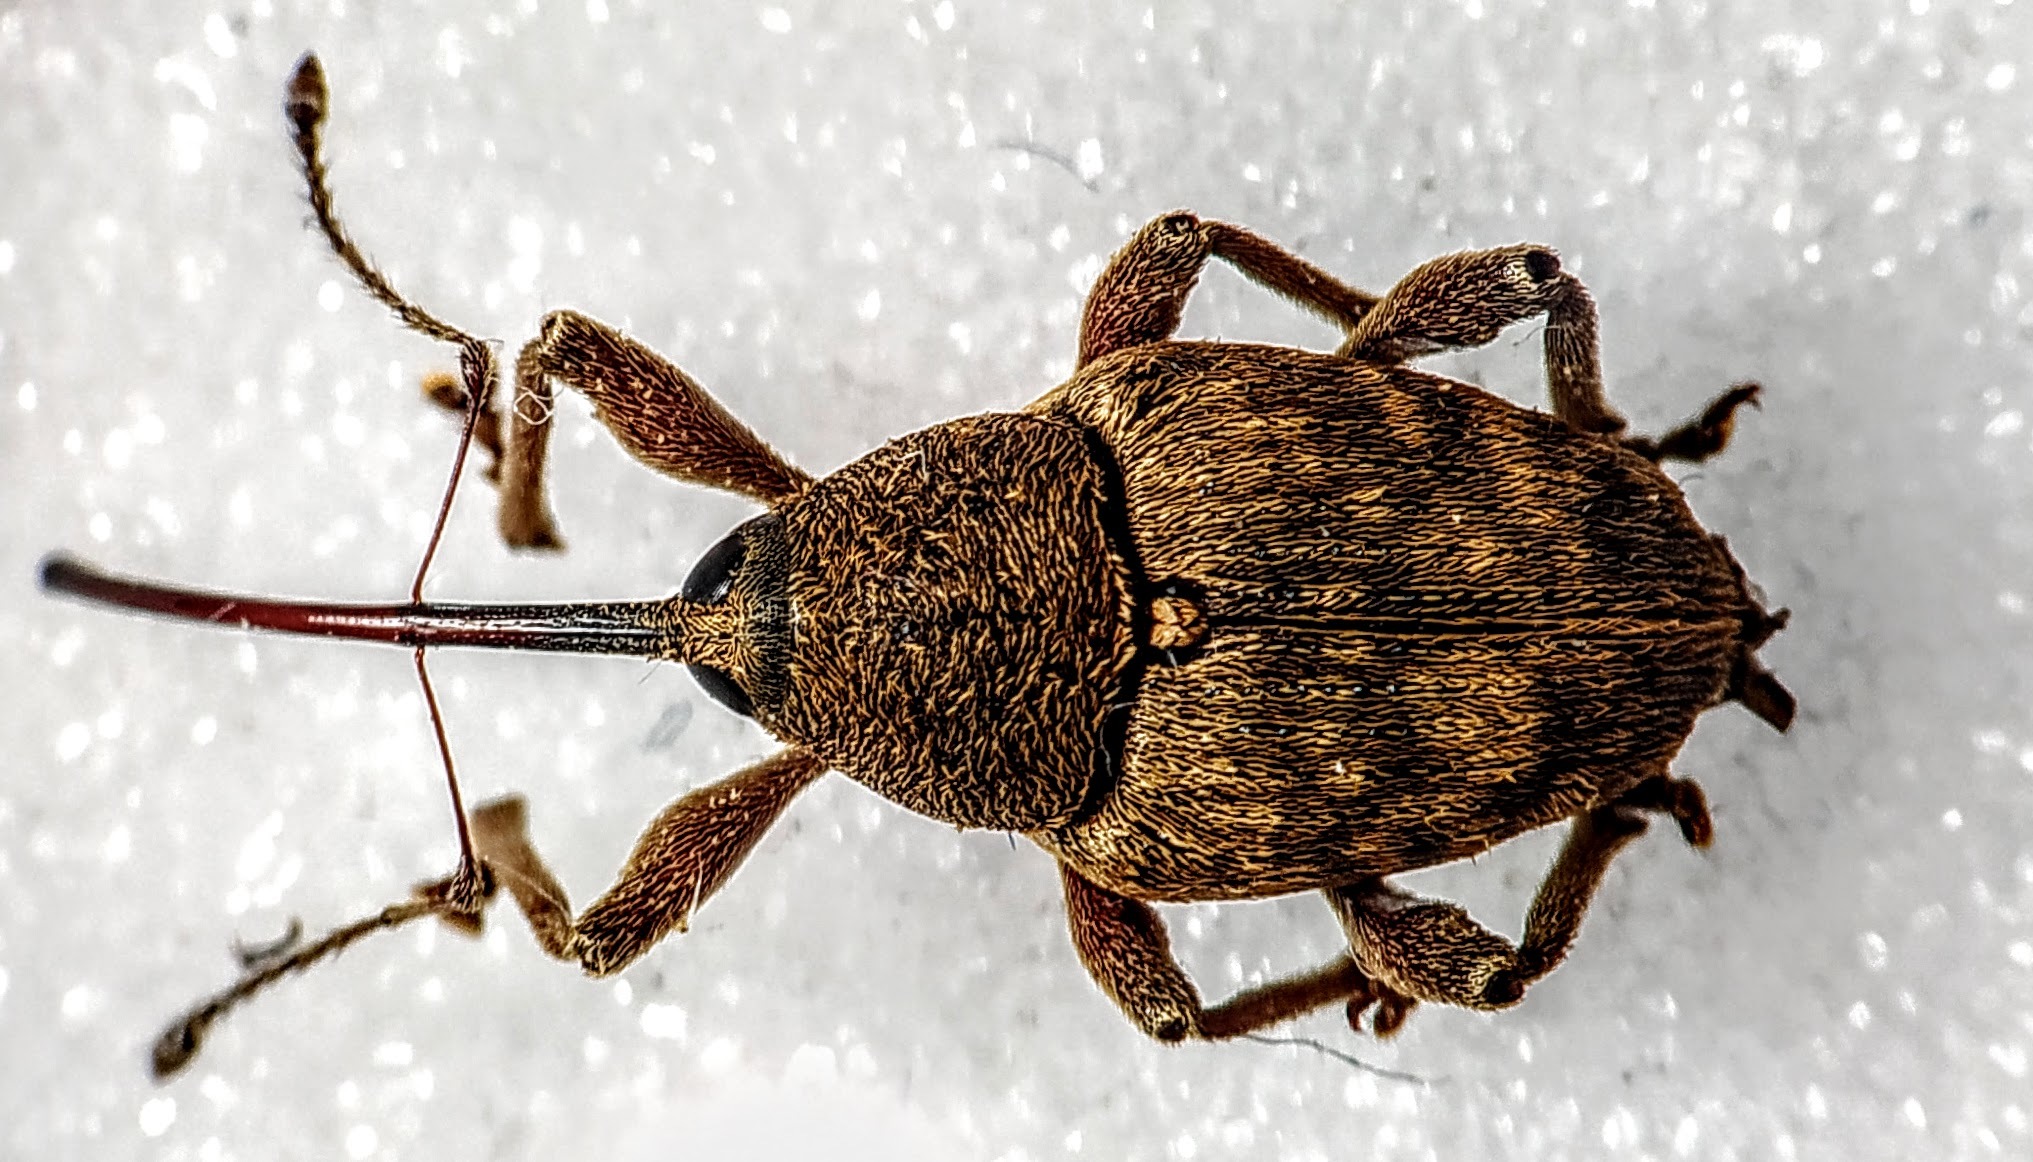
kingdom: Animalia
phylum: Arthropoda
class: Insecta
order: Coleoptera
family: Curculionidae
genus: Curculio
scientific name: Curculio nucum
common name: Nut weevil
